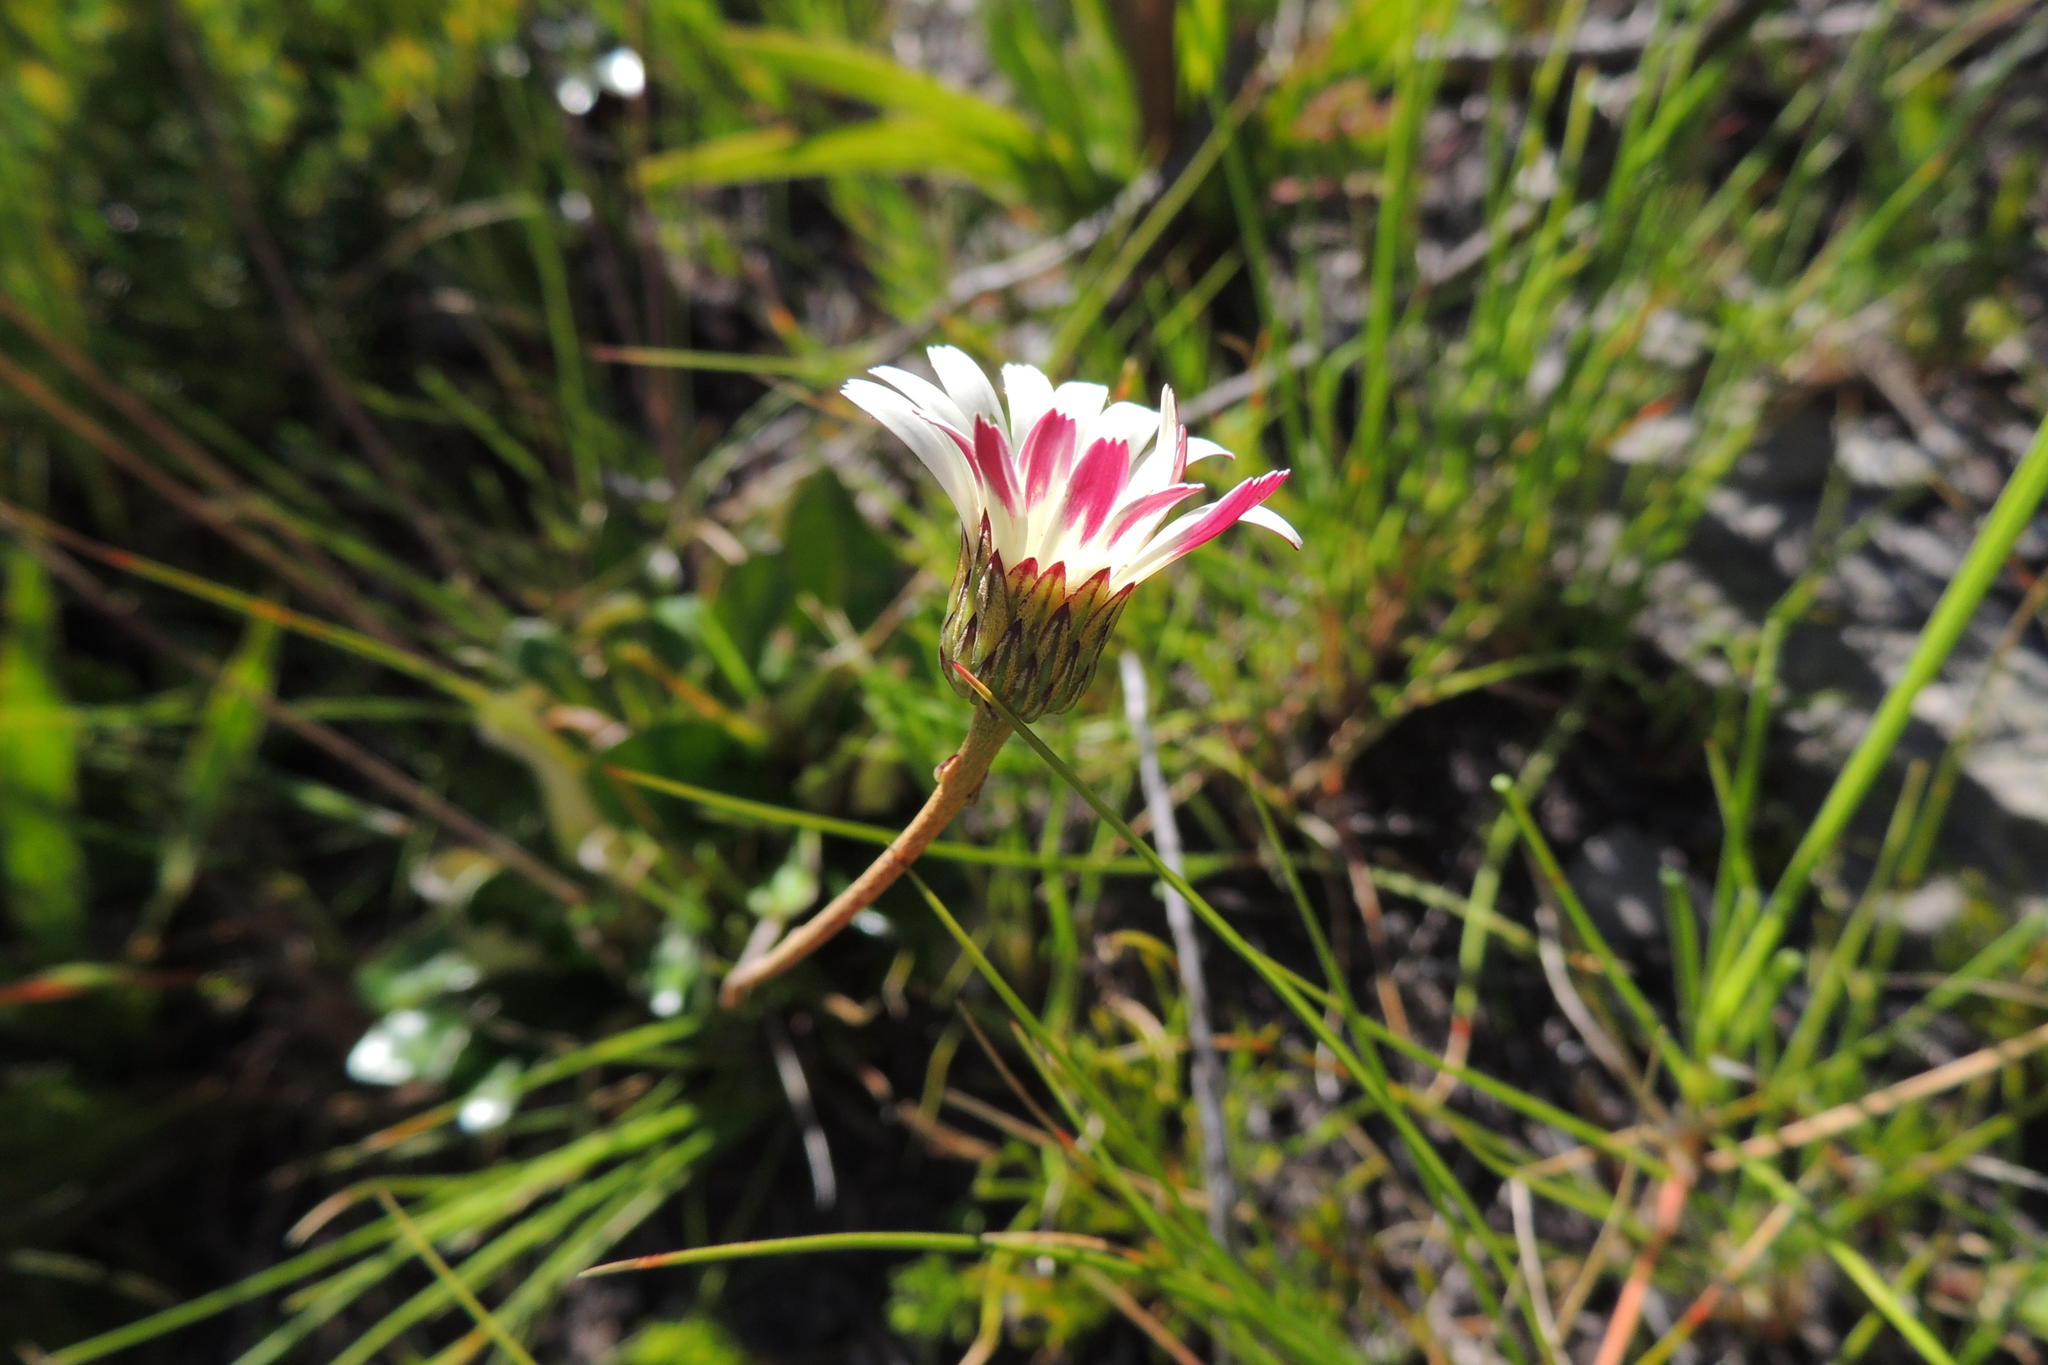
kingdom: Plantae
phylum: Tracheophyta
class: Magnoliopsida
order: Asterales
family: Asteraceae
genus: Gerbera
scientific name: Gerbera tomentosa
